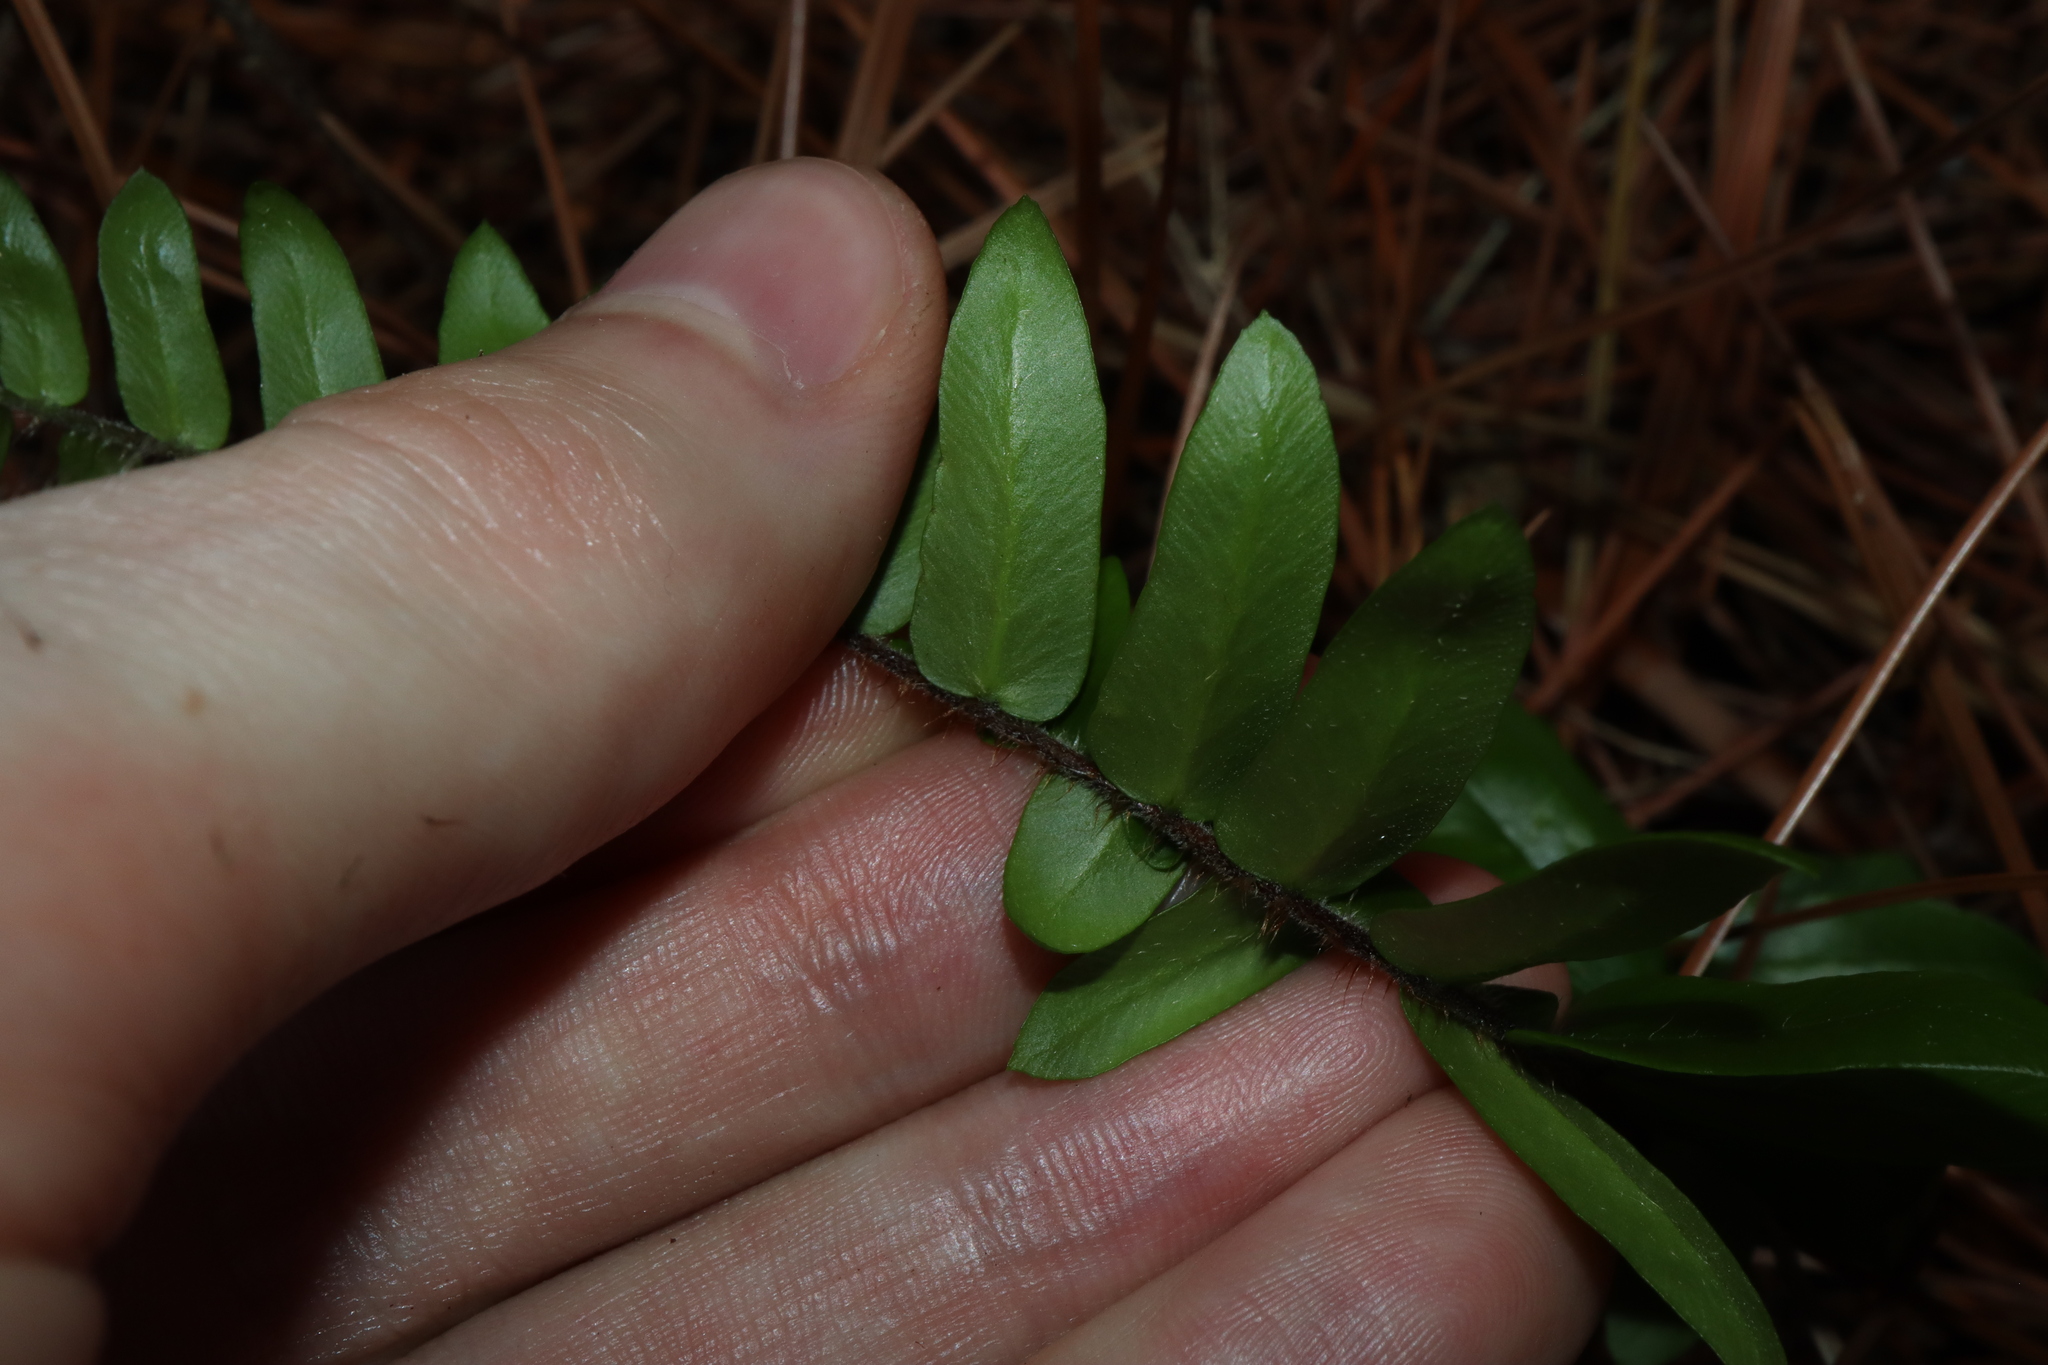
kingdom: Plantae
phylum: Tracheophyta
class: Polypodiopsida
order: Polypodiales
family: Pteridaceae
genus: Pellaea
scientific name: Pellaea falcata
